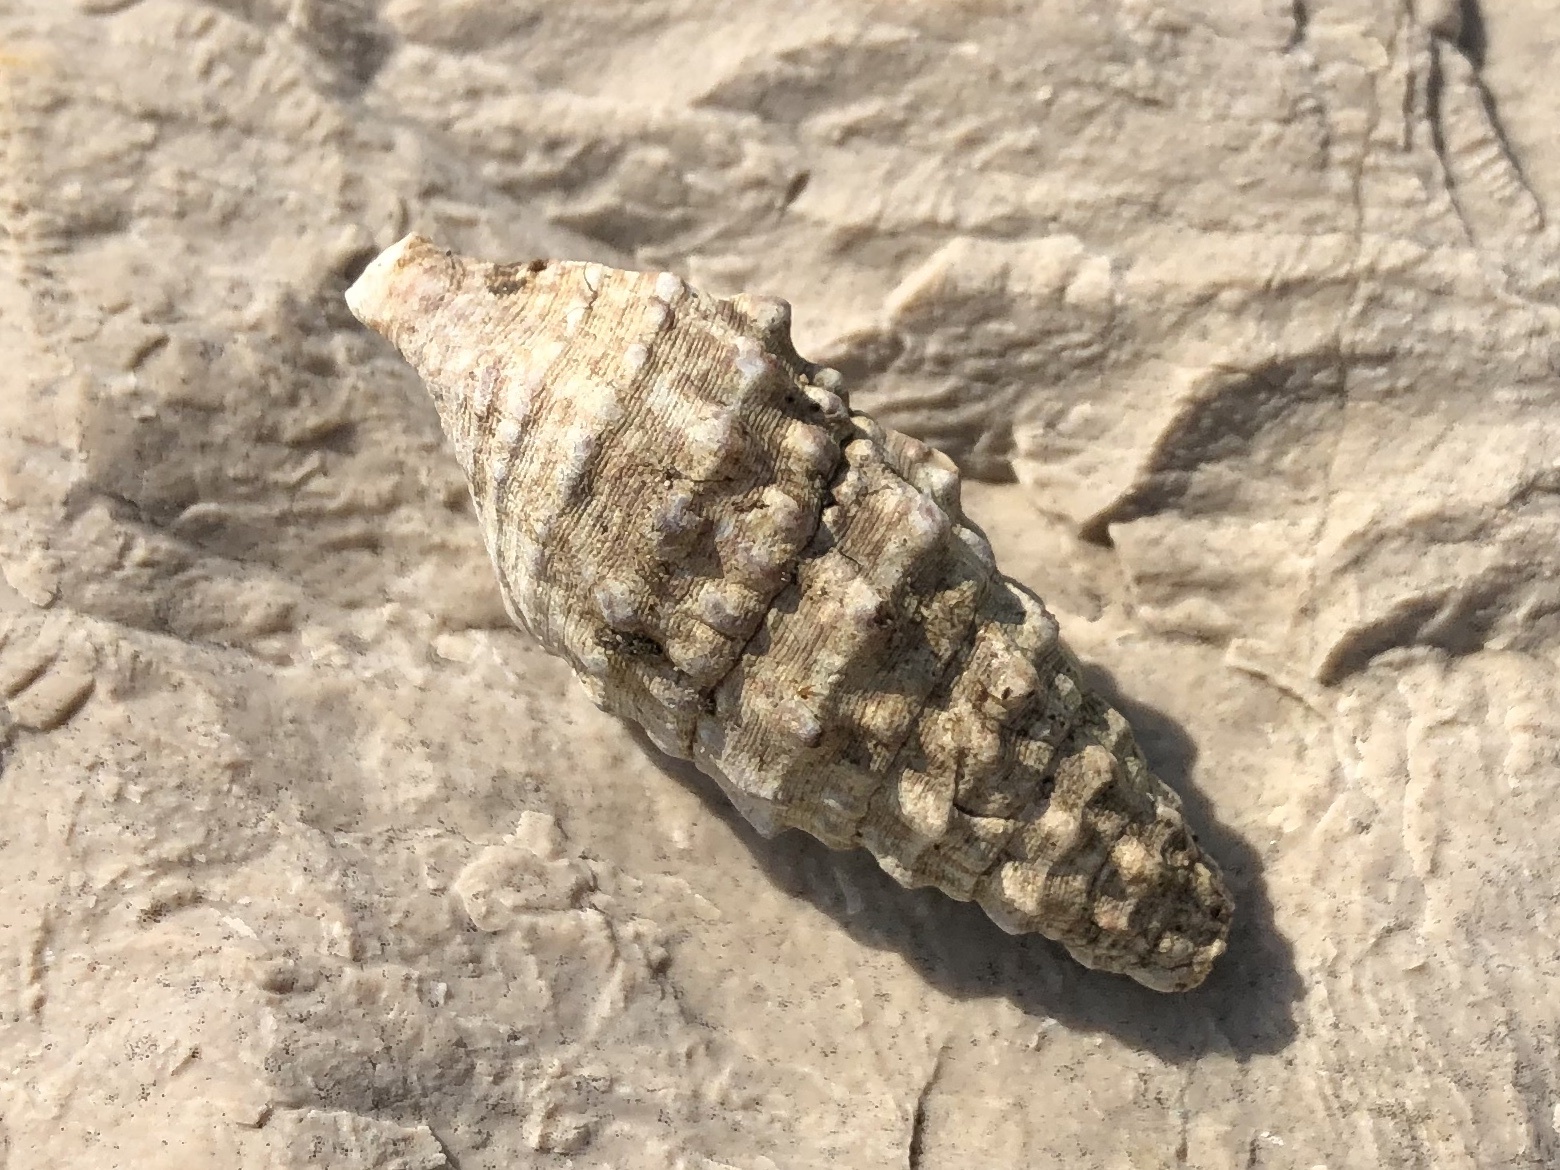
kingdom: Animalia
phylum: Mollusca
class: Gastropoda
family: Cerithiidae
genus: Cerithium
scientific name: Cerithium vulgatum
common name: European cerith
